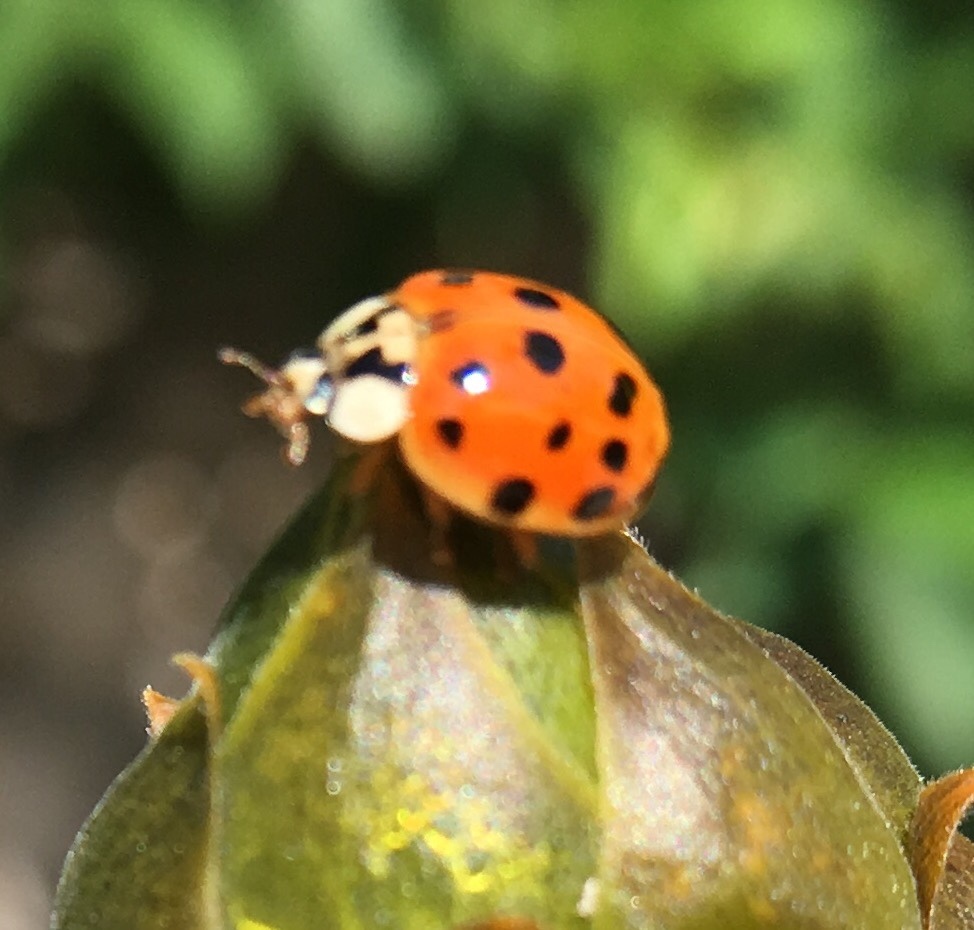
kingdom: Animalia
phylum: Arthropoda
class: Insecta
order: Coleoptera
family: Coccinellidae
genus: Harmonia
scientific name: Harmonia axyridis
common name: Harlequin ladybird
